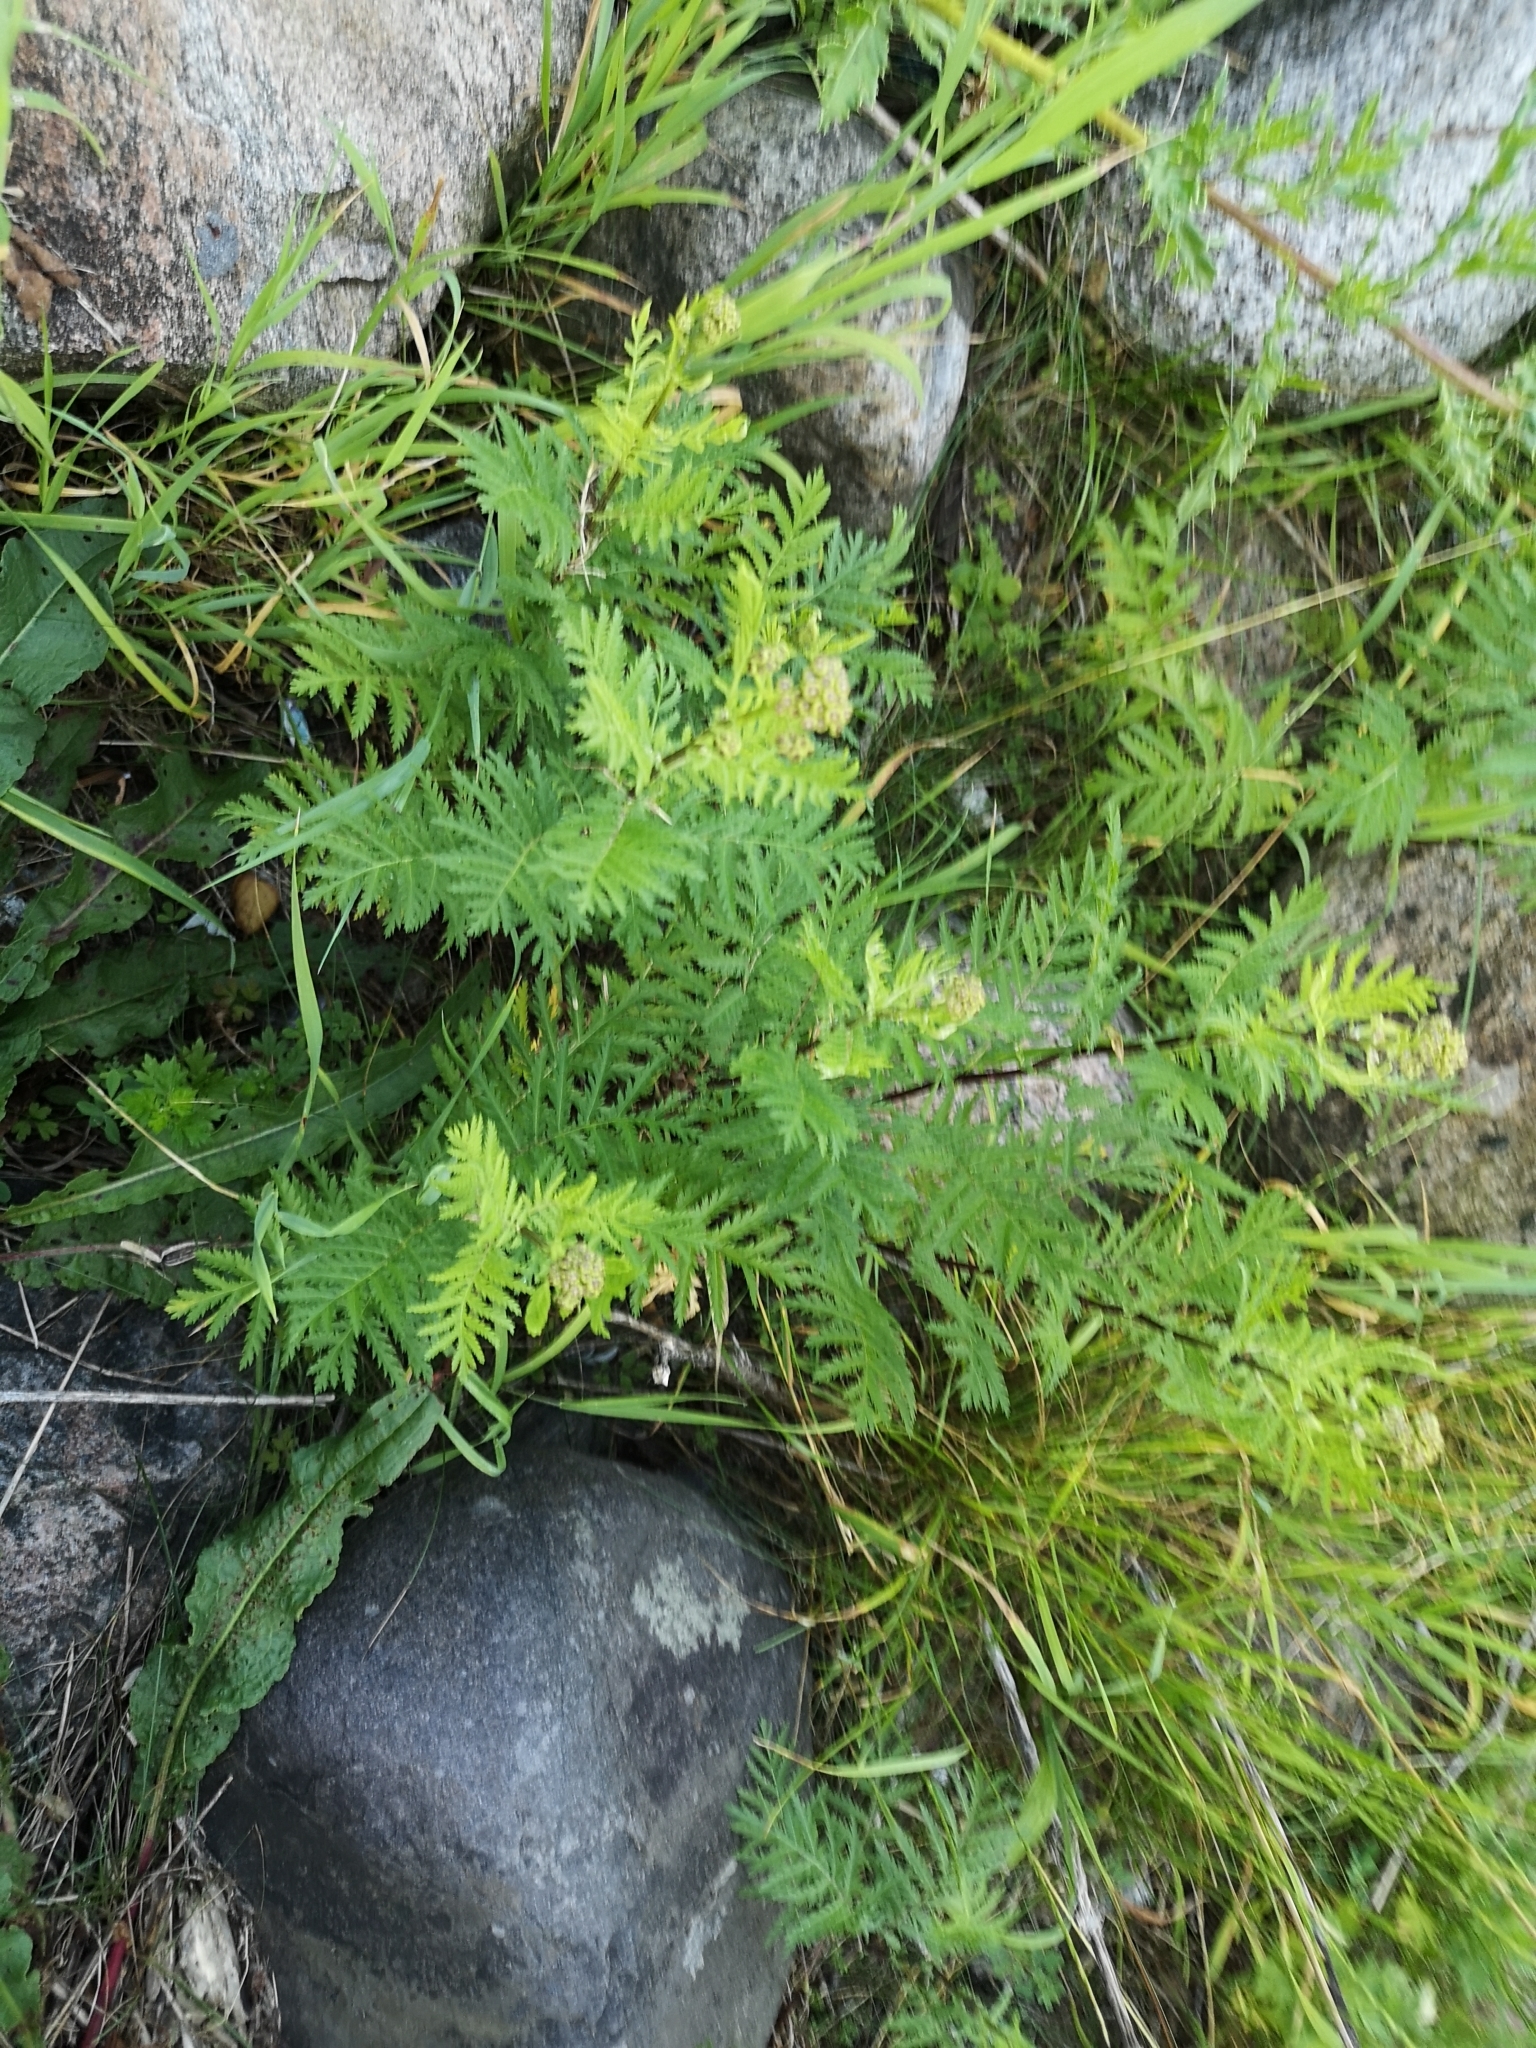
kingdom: Plantae
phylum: Tracheophyta
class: Magnoliopsida
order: Asterales
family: Asteraceae
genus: Tanacetum
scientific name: Tanacetum vulgare
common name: Common tansy
